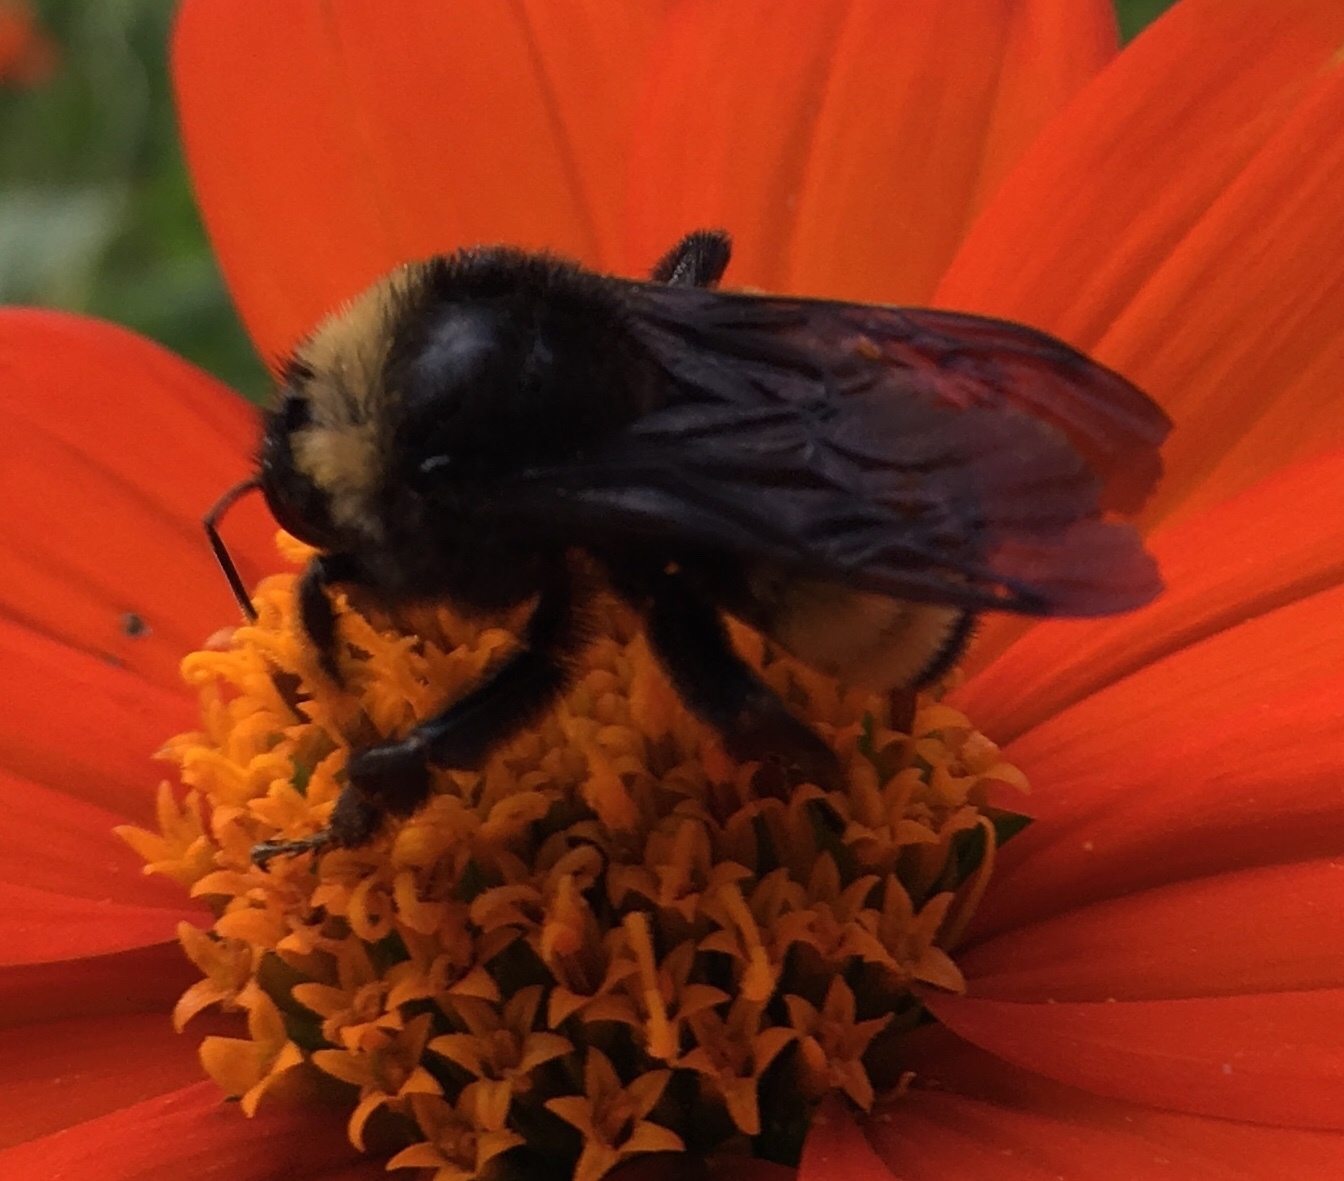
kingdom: Animalia
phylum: Arthropoda
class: Insecta
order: Hymenoptera
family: Apidae
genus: Bombus
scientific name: Bombus pensylvanicus
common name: Bumble bee
